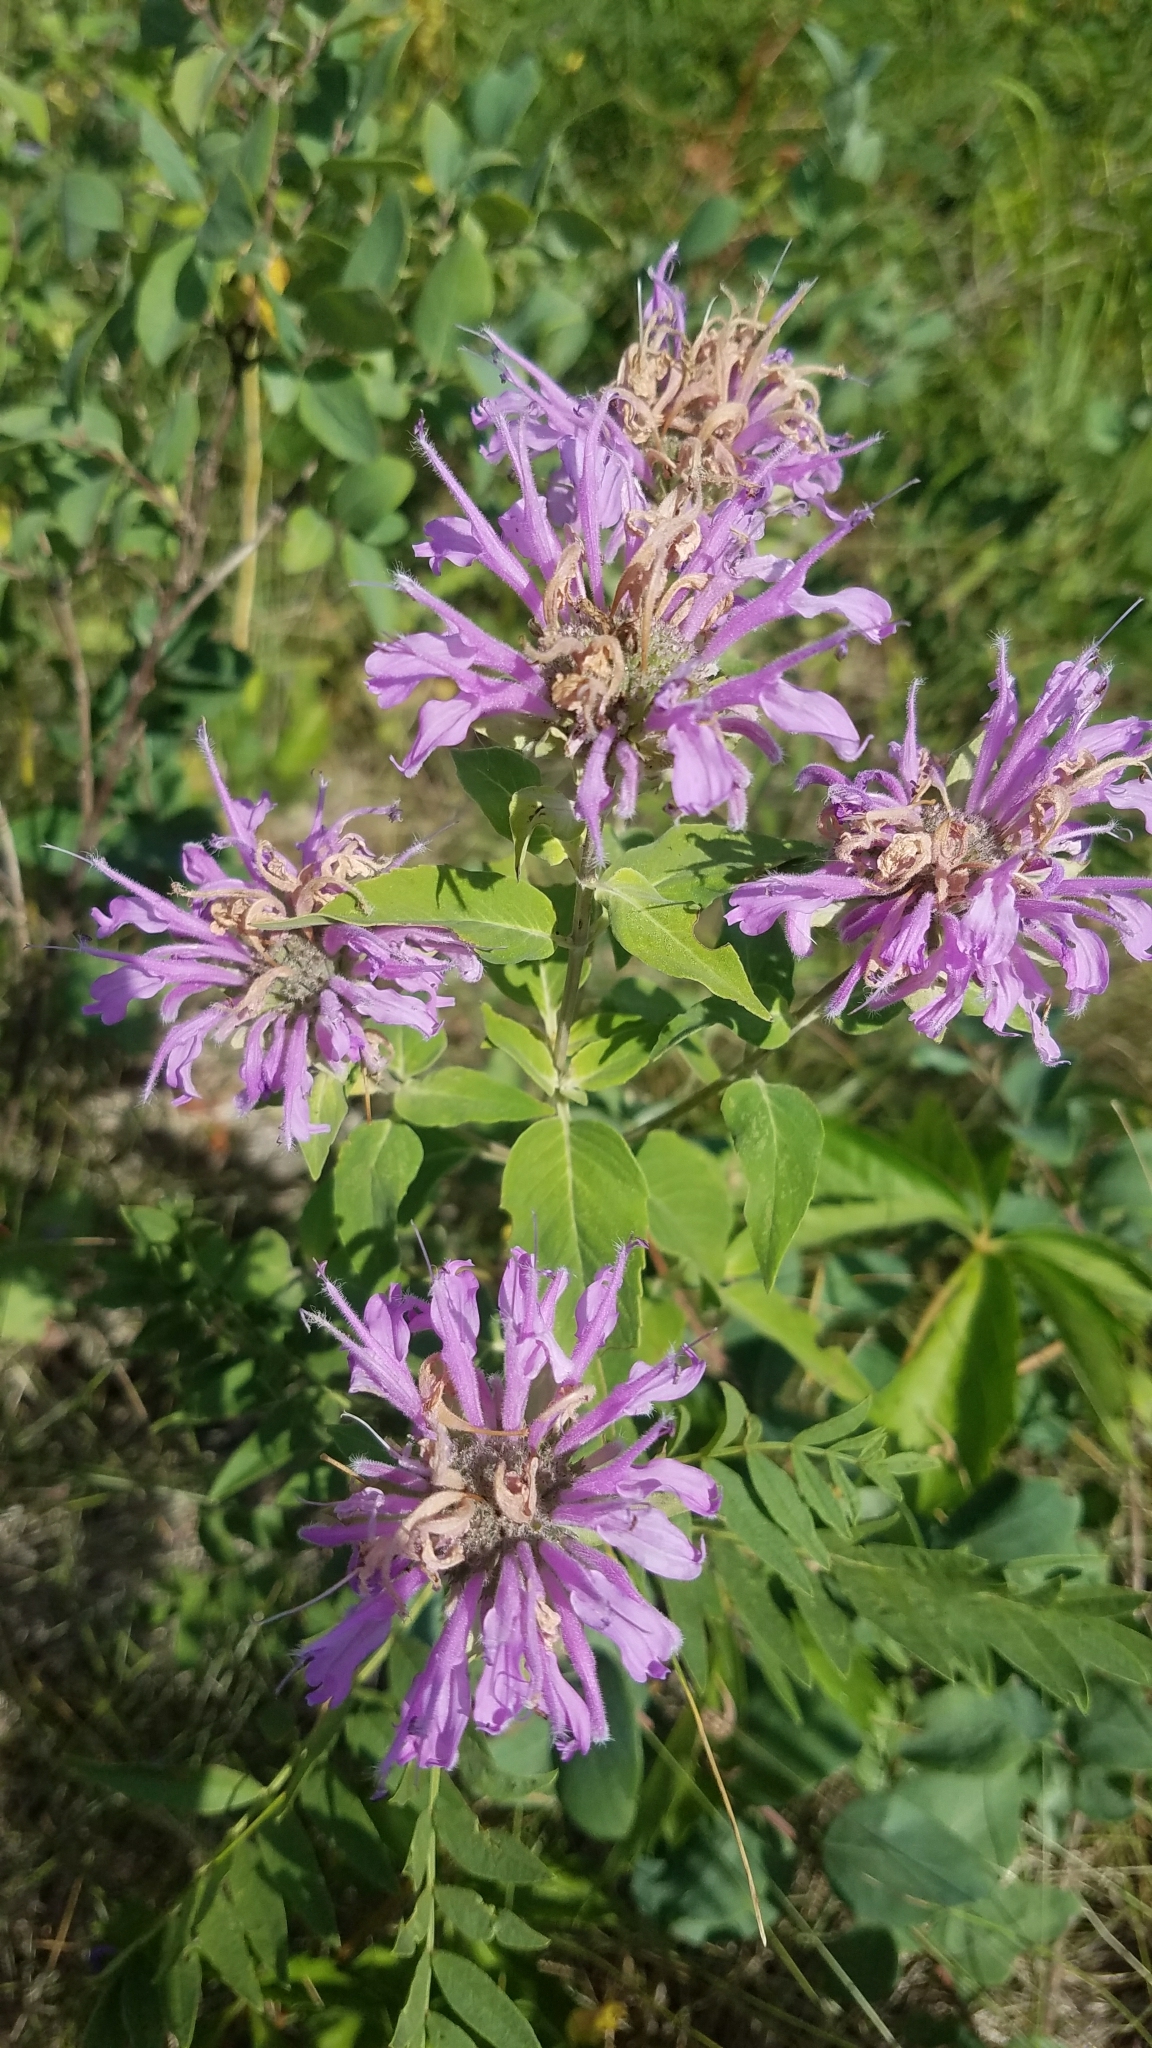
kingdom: Plantae
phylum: Tracheophyta
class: Magnoliopsida
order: Lamiales
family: Lamiaceae
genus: Monarda
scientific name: Monarda fistulosa
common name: Purple beebalm
